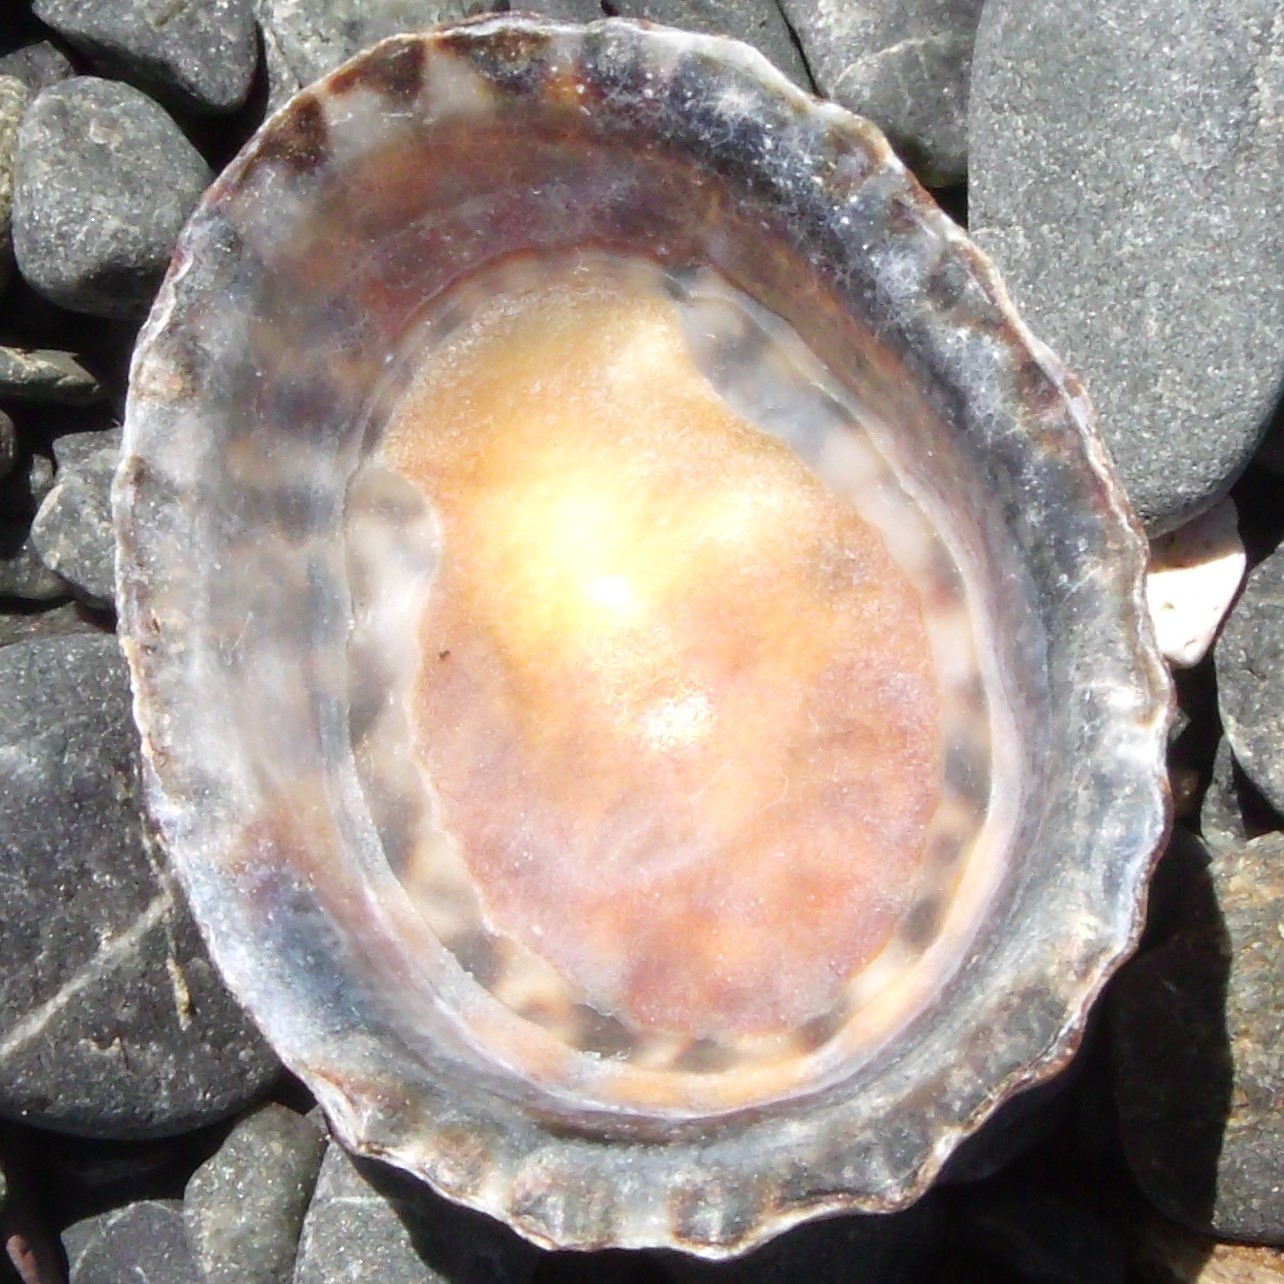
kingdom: Animalia
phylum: Mollusca
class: Gastropoda
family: Nacellidae
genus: Cellana
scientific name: Cellana denticulata
